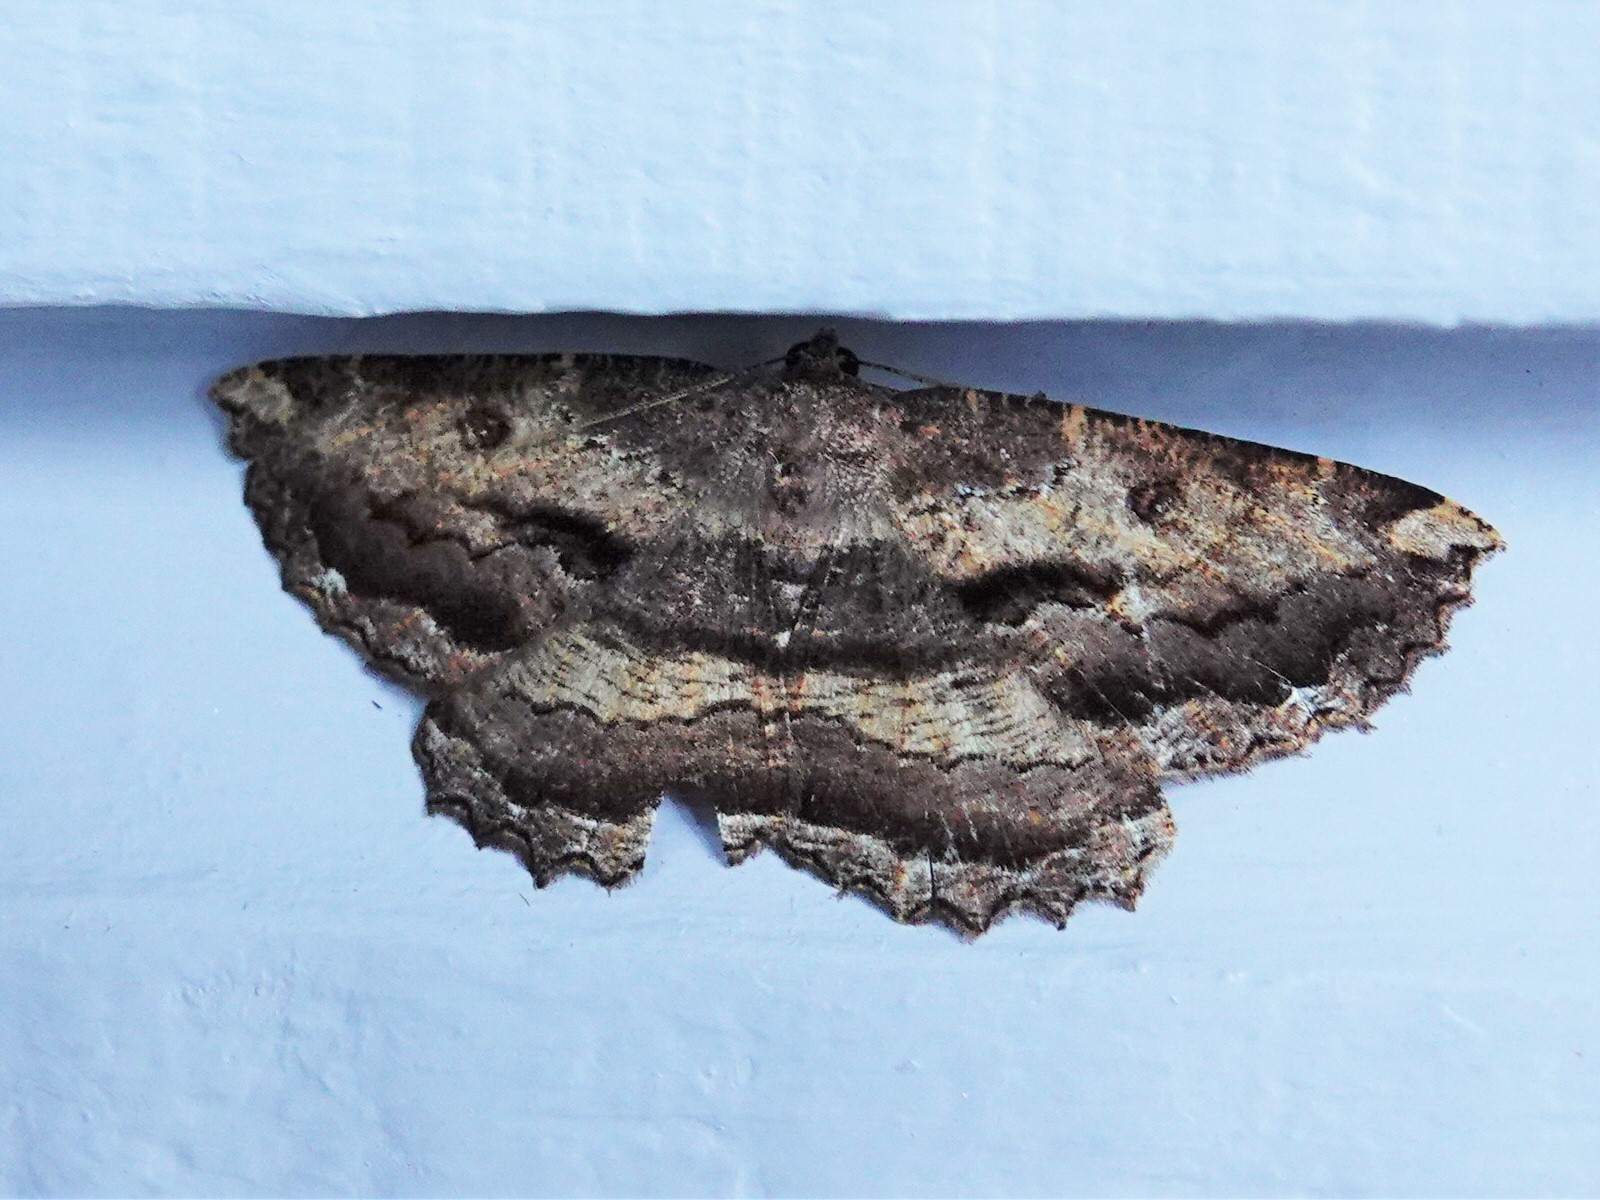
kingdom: Animalia
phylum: Arthropoda
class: Insecta
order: Lepidoptera
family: Geometridae
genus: Gellonia
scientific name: Gellonia dejectaria
